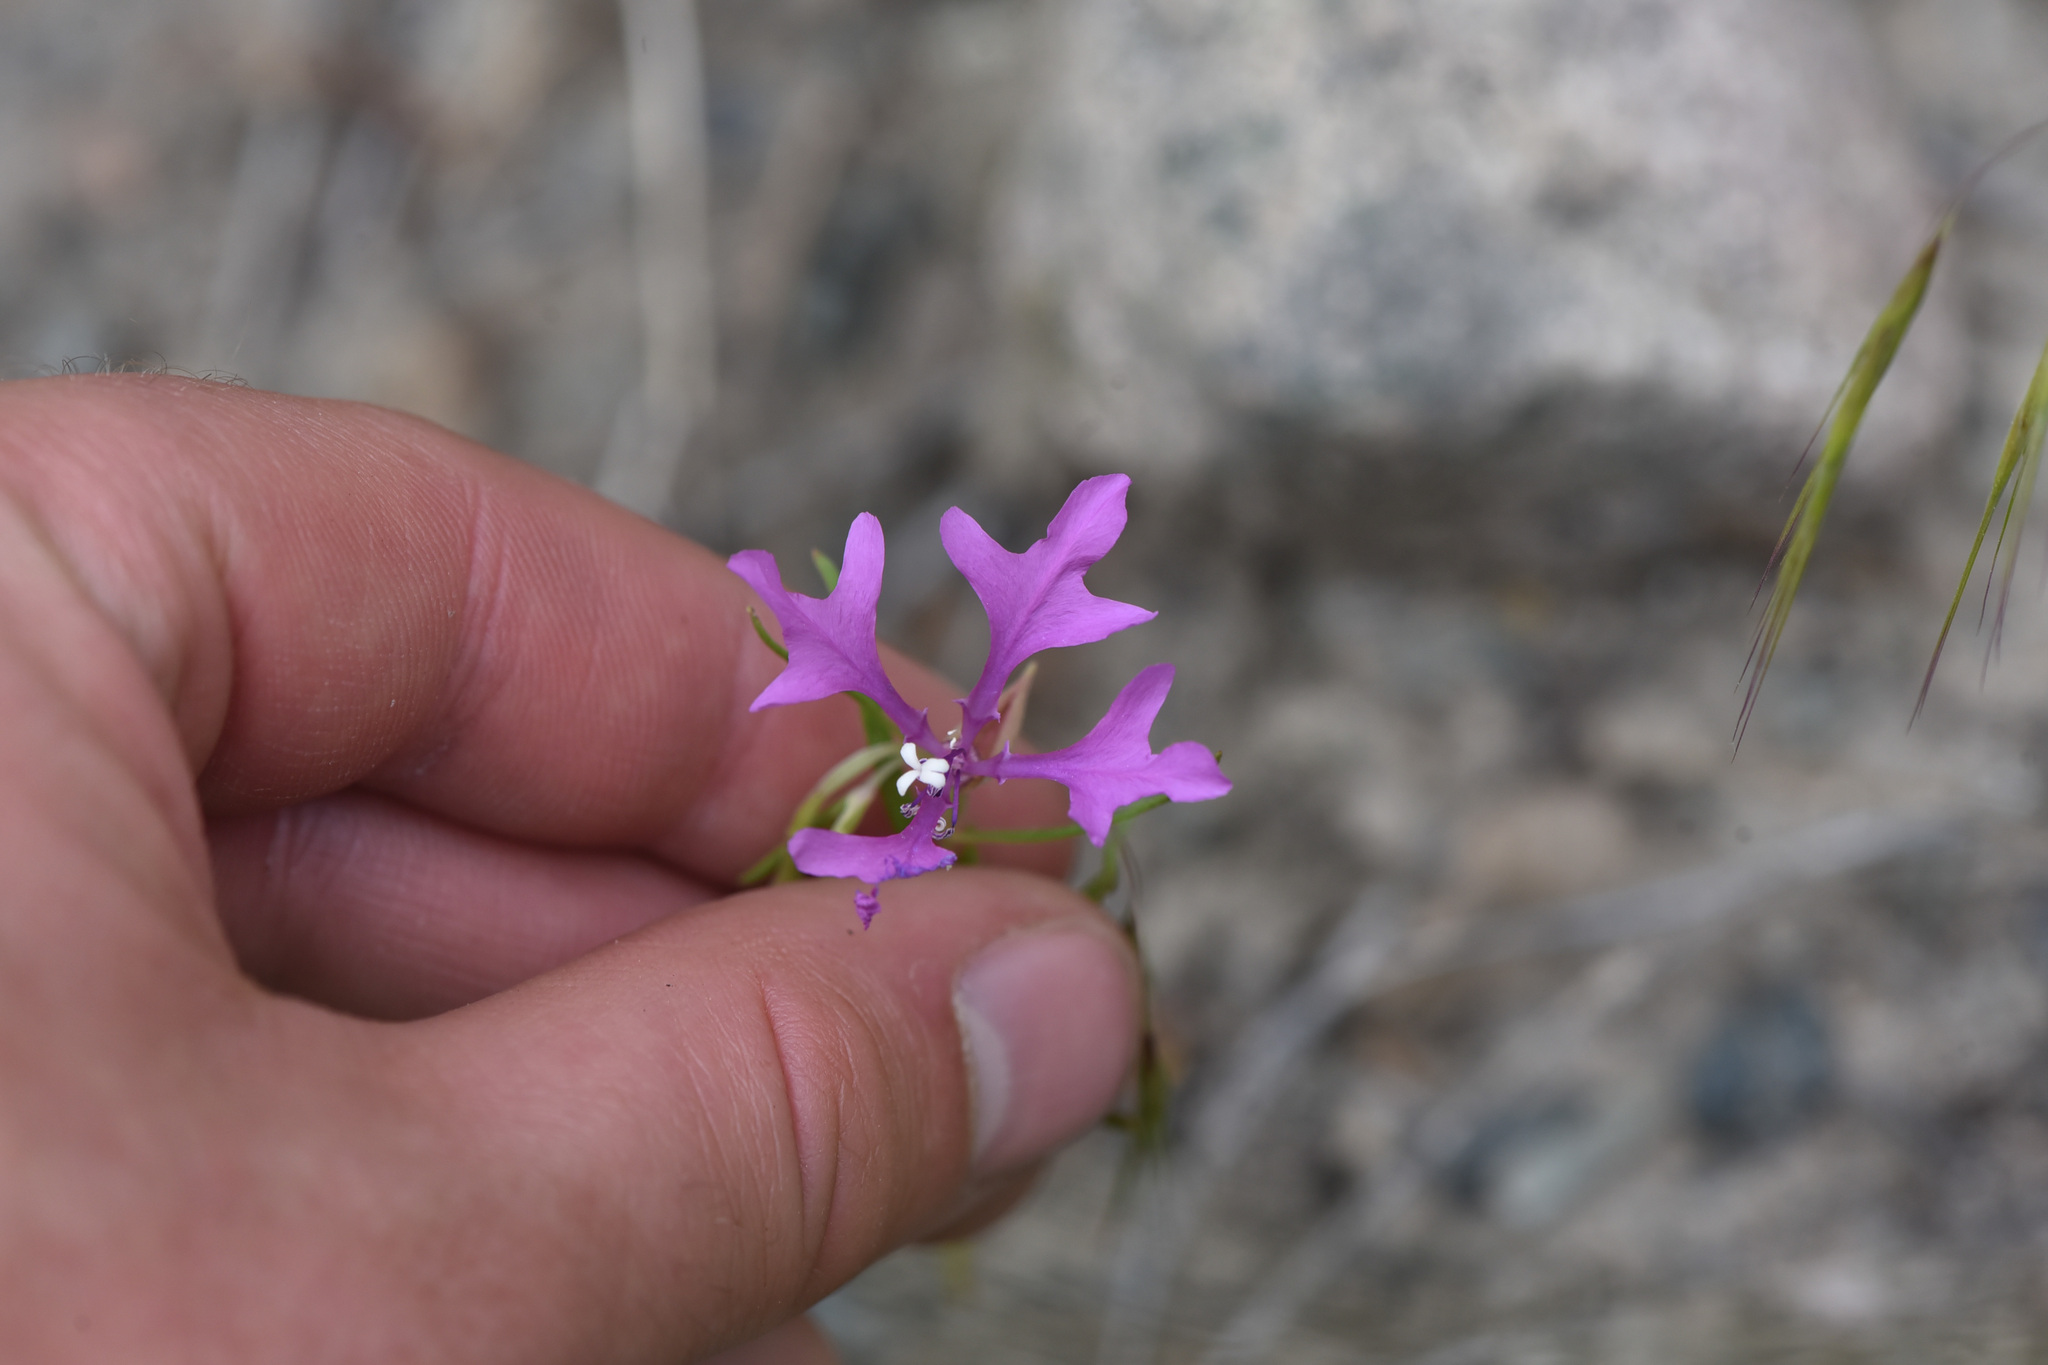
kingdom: Plantae
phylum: Tracheophyta
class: Magnoliopsida
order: Myrtales
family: Onagraceae
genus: Clarkia
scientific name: Clarkia pulchella
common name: Deer horn
